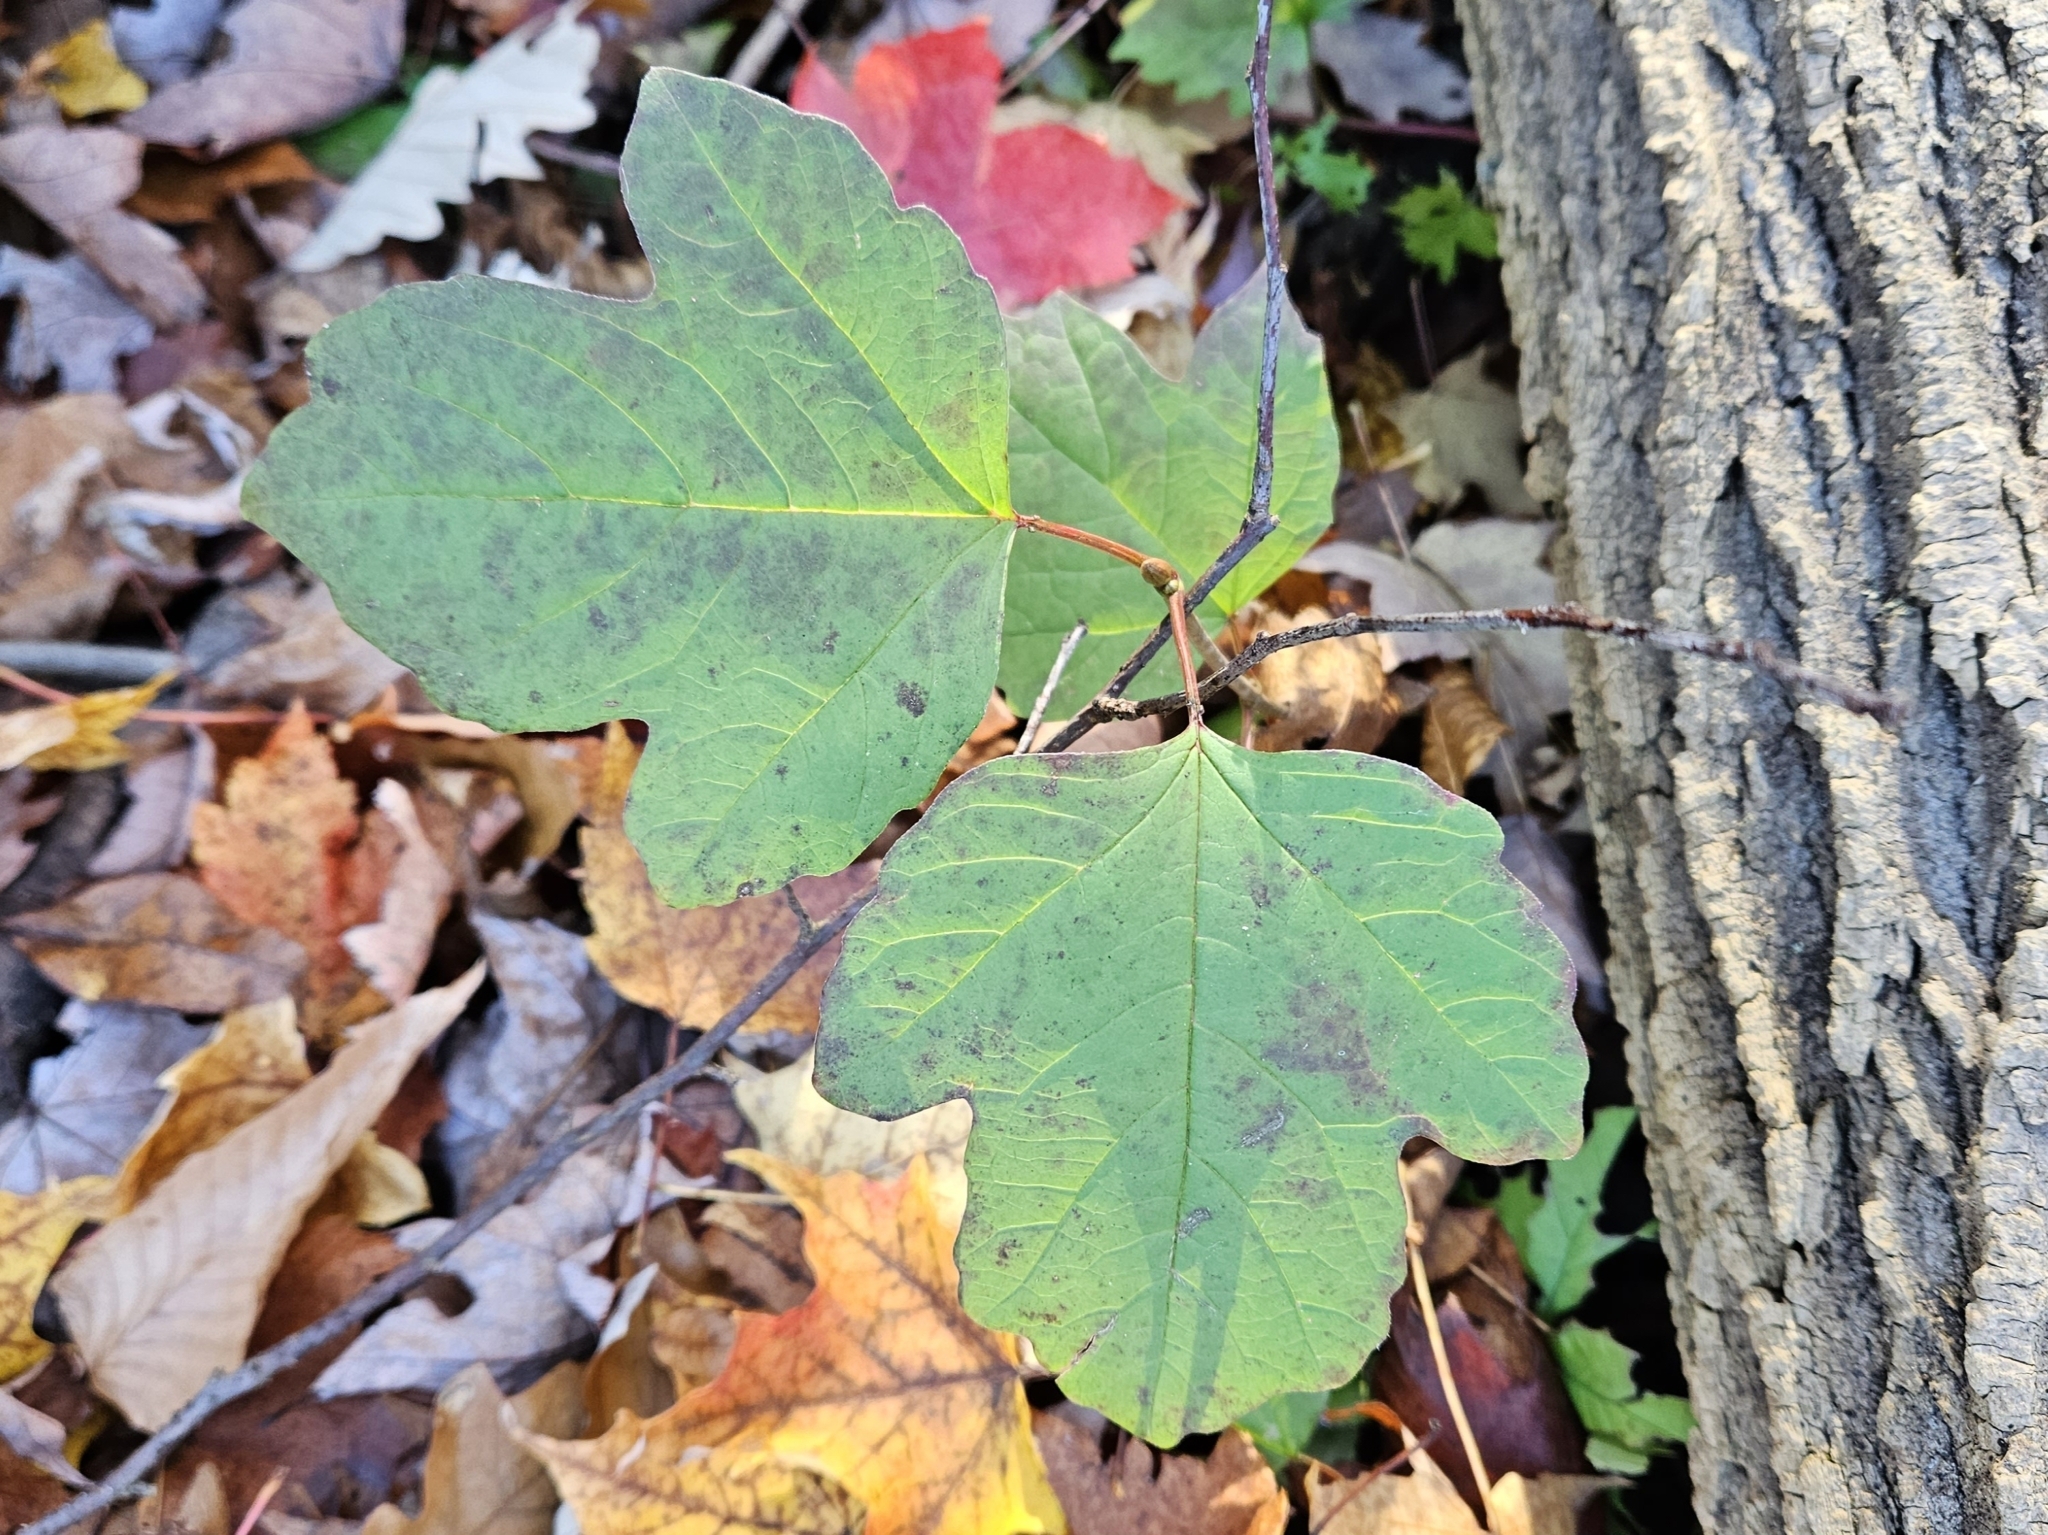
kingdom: Plantae
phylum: Tracheophyta
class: Magnoliopsida
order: Dipsacales
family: Viburnaceae
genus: Viburnum
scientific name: Viburnum opulus
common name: Guelder-rose
